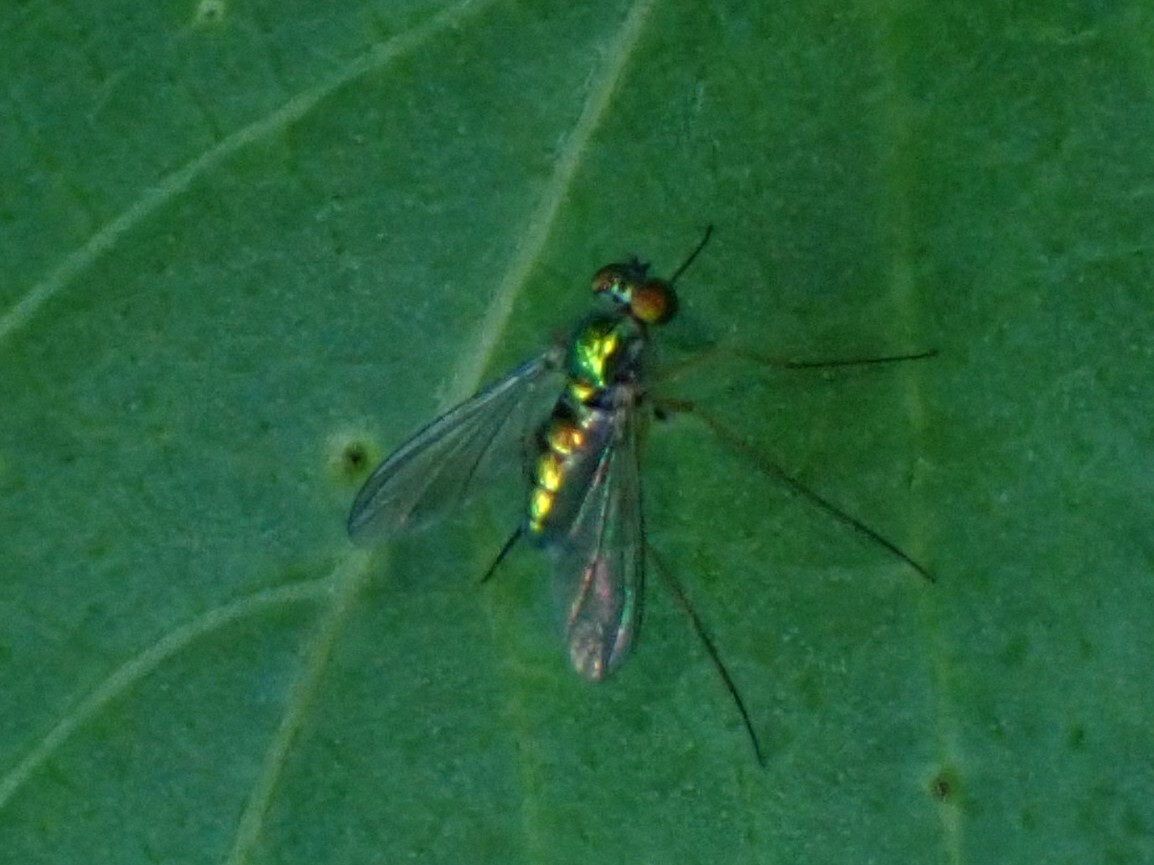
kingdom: Animalia
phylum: Arthropoda
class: Insecta
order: Diptera
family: Dolichopodidae
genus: Amblypsilopus
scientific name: Amblypsilopus scintillans
